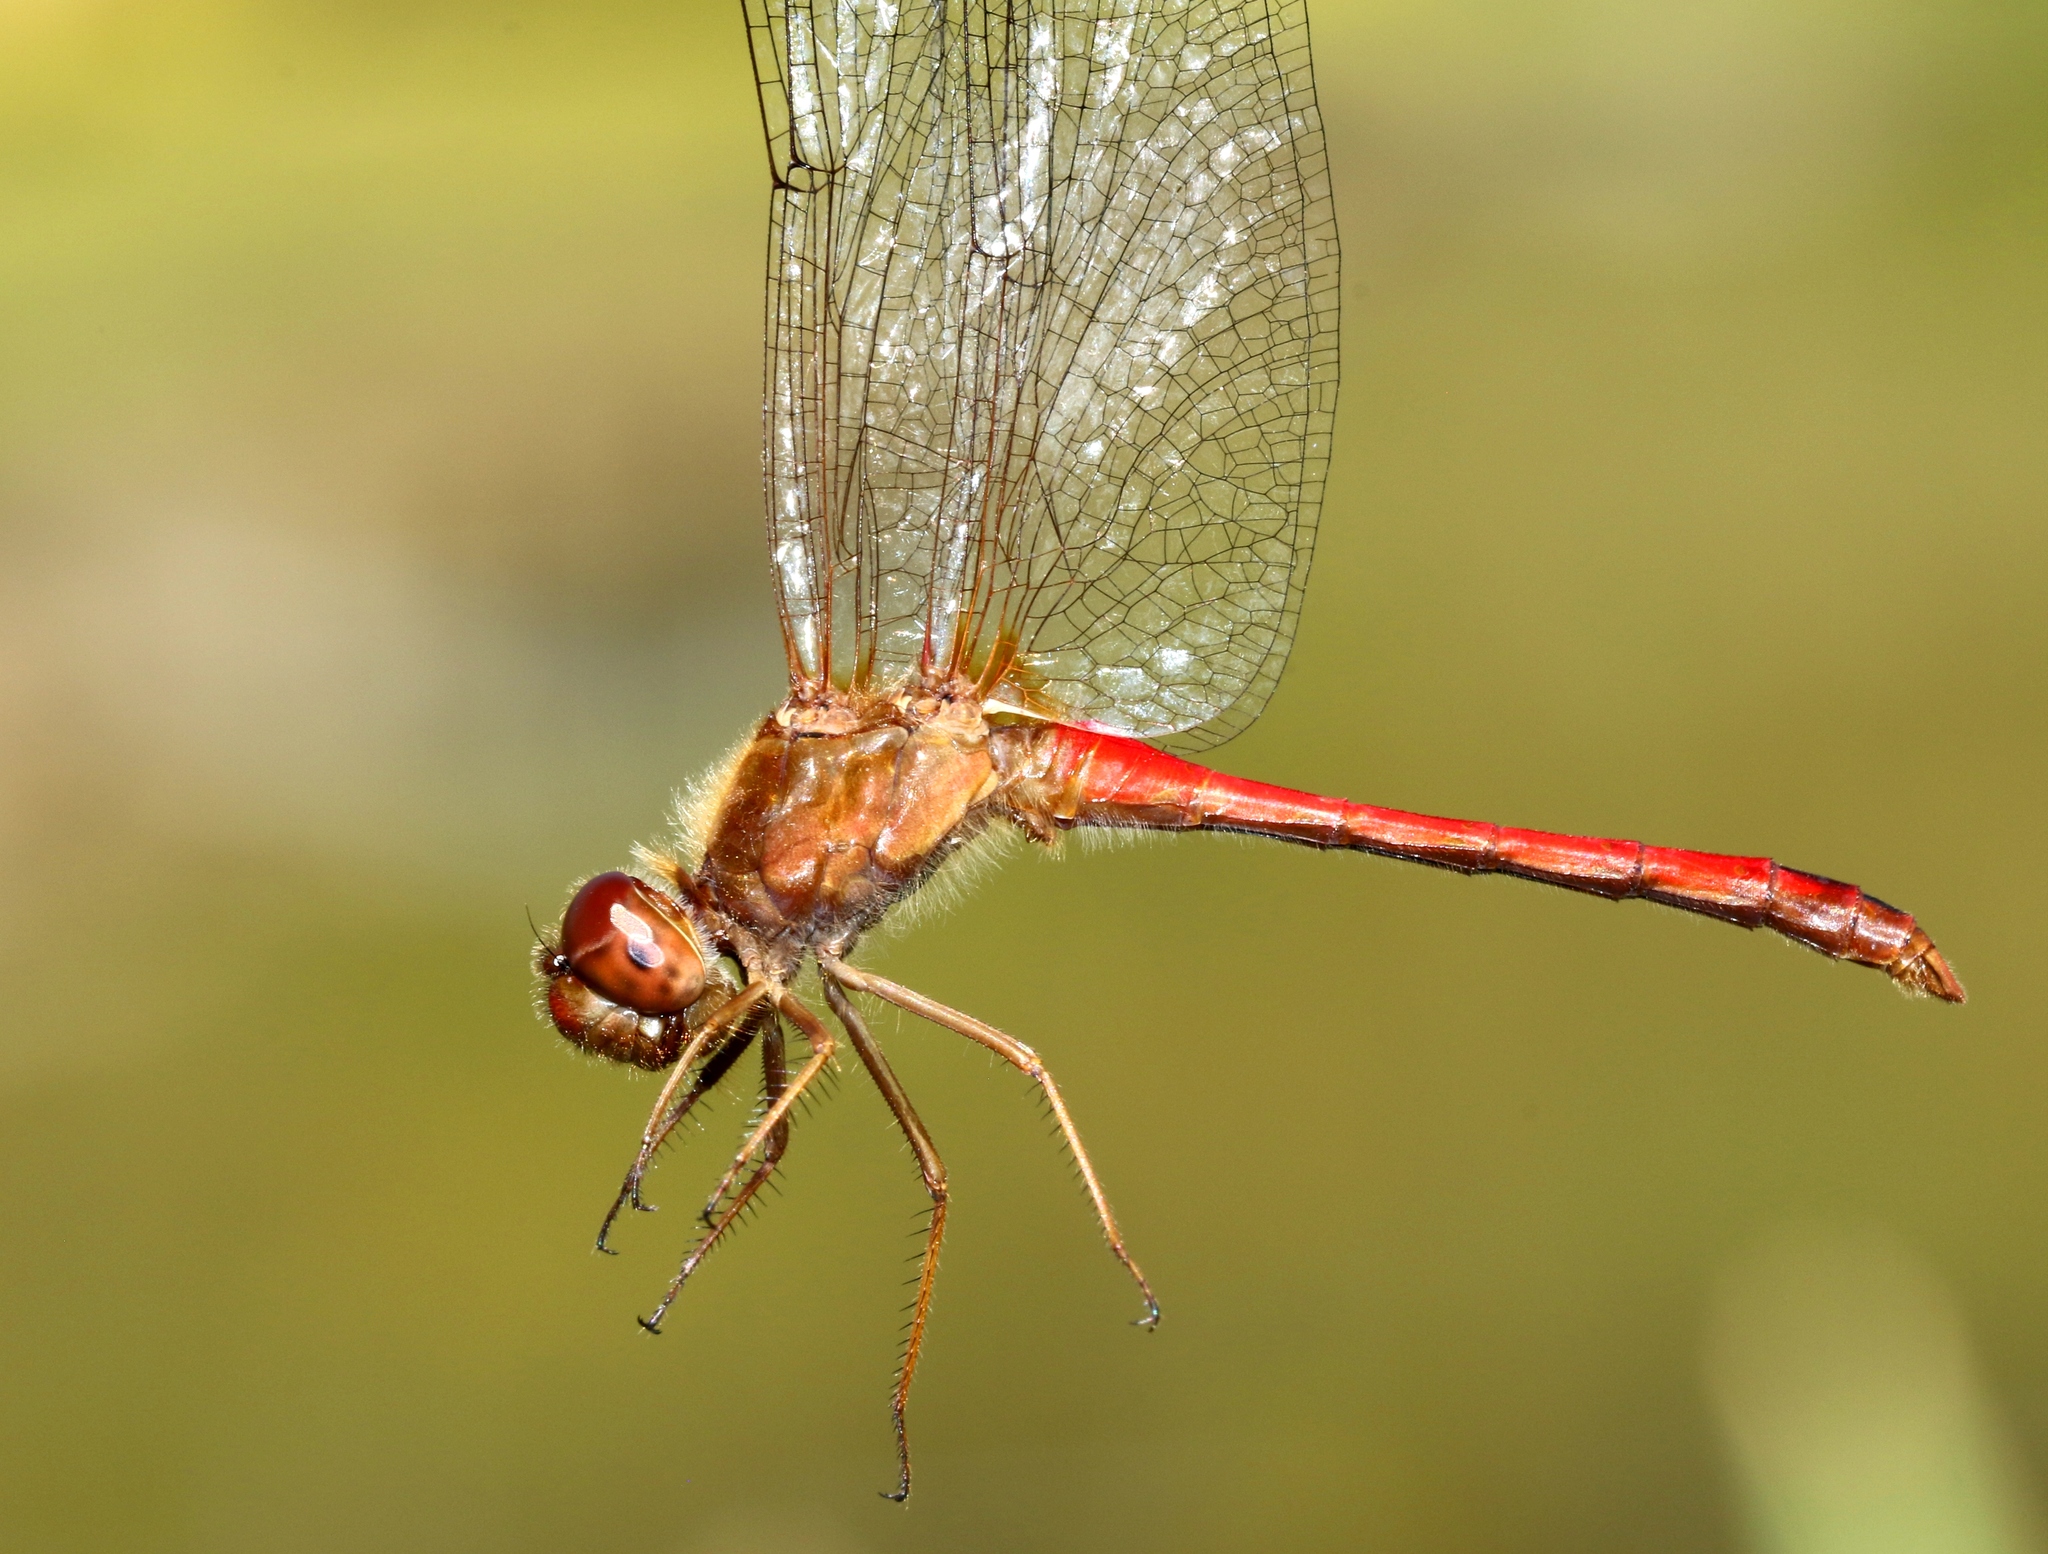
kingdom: Animalia
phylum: Arthropoda
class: Insecta
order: Odonata
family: Libellulidae
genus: Sympetrum
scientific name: Sympetrum vicinum
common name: Autumn meadowhawk
